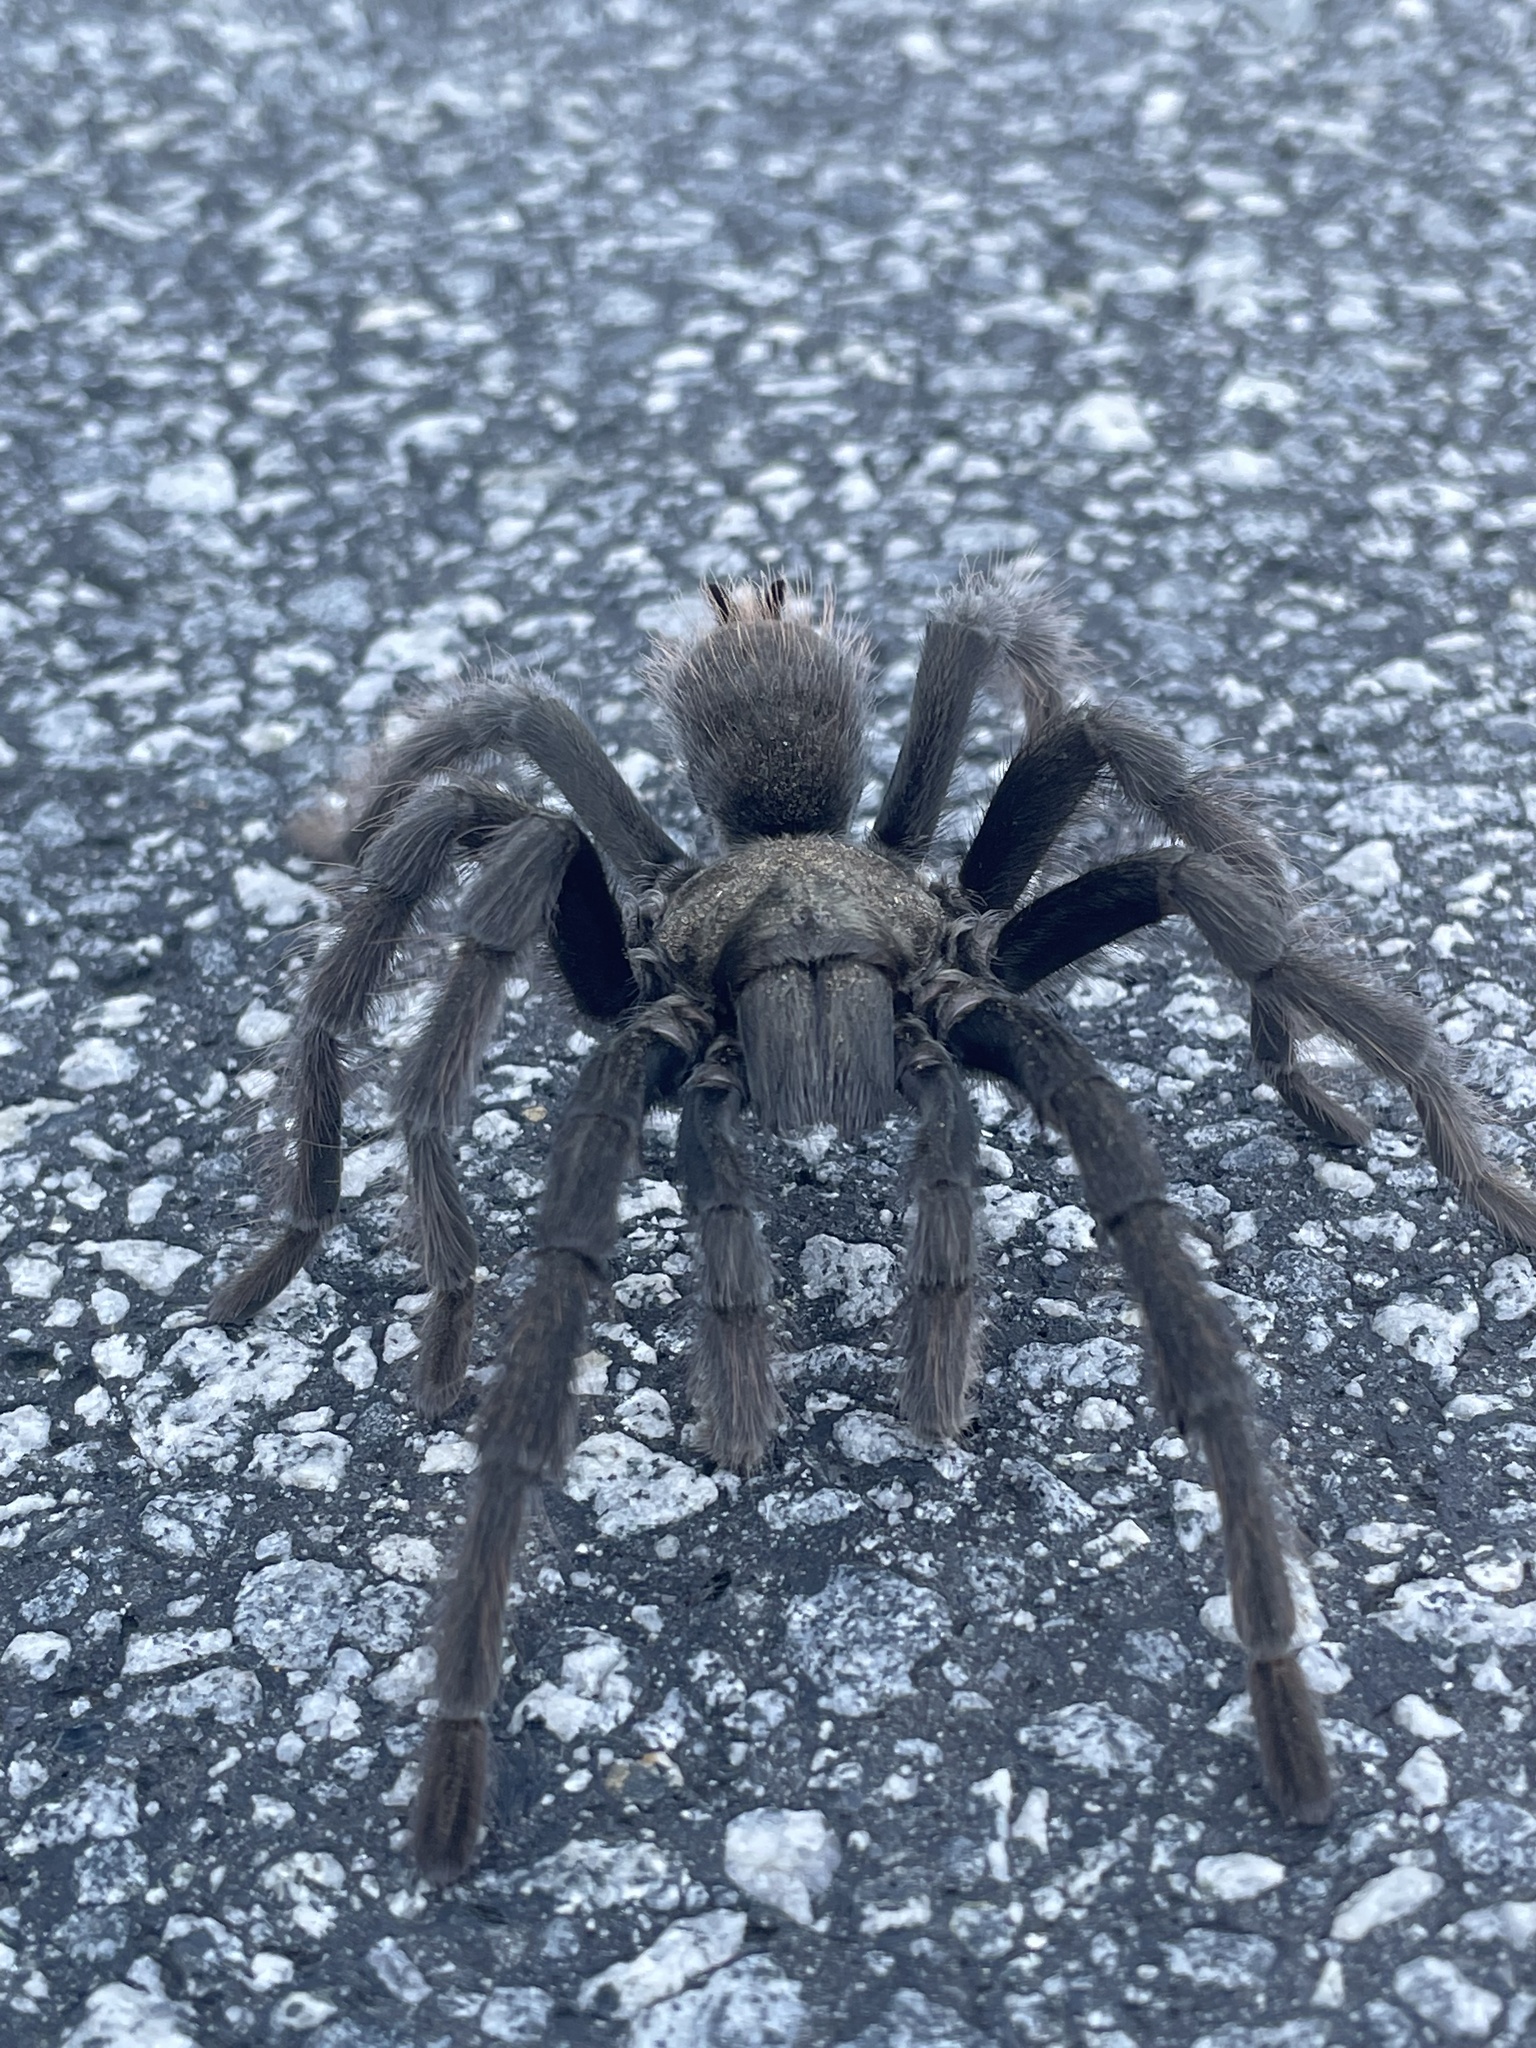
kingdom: Animalia
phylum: Arthropoda
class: Arachnida
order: Araneae
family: Theraphosidae
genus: Aphonopelma
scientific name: Aphonopelma johnnycashi
